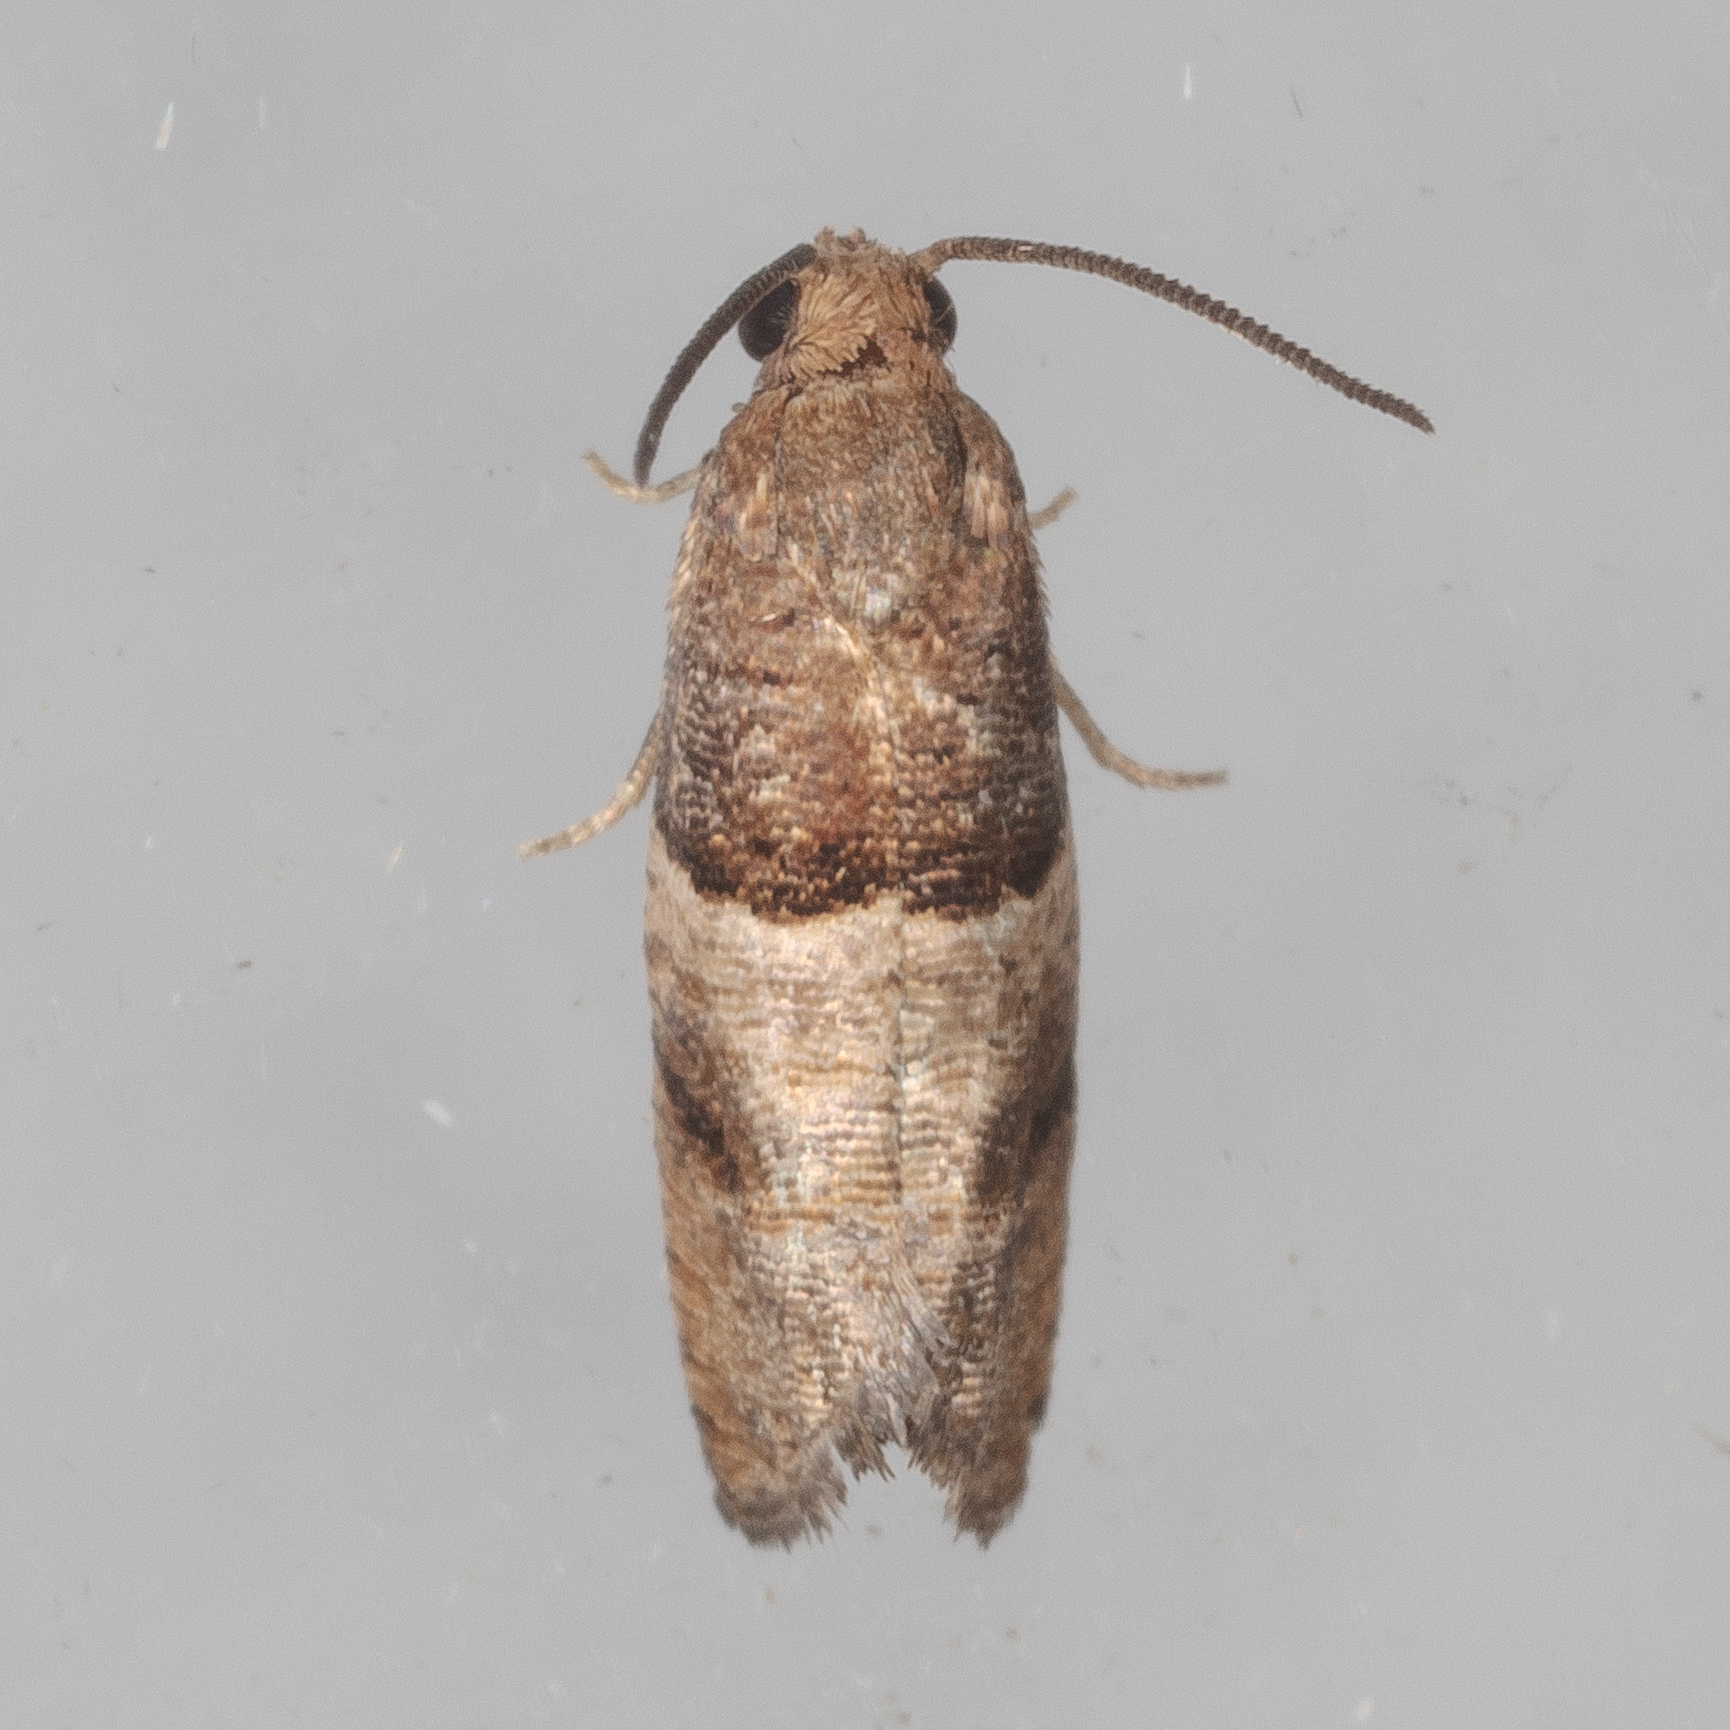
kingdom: Animalia
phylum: Arthropoda
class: Insecta
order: Lepidoptera
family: Tortricidae
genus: Larisa
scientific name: Larisa subsolana
